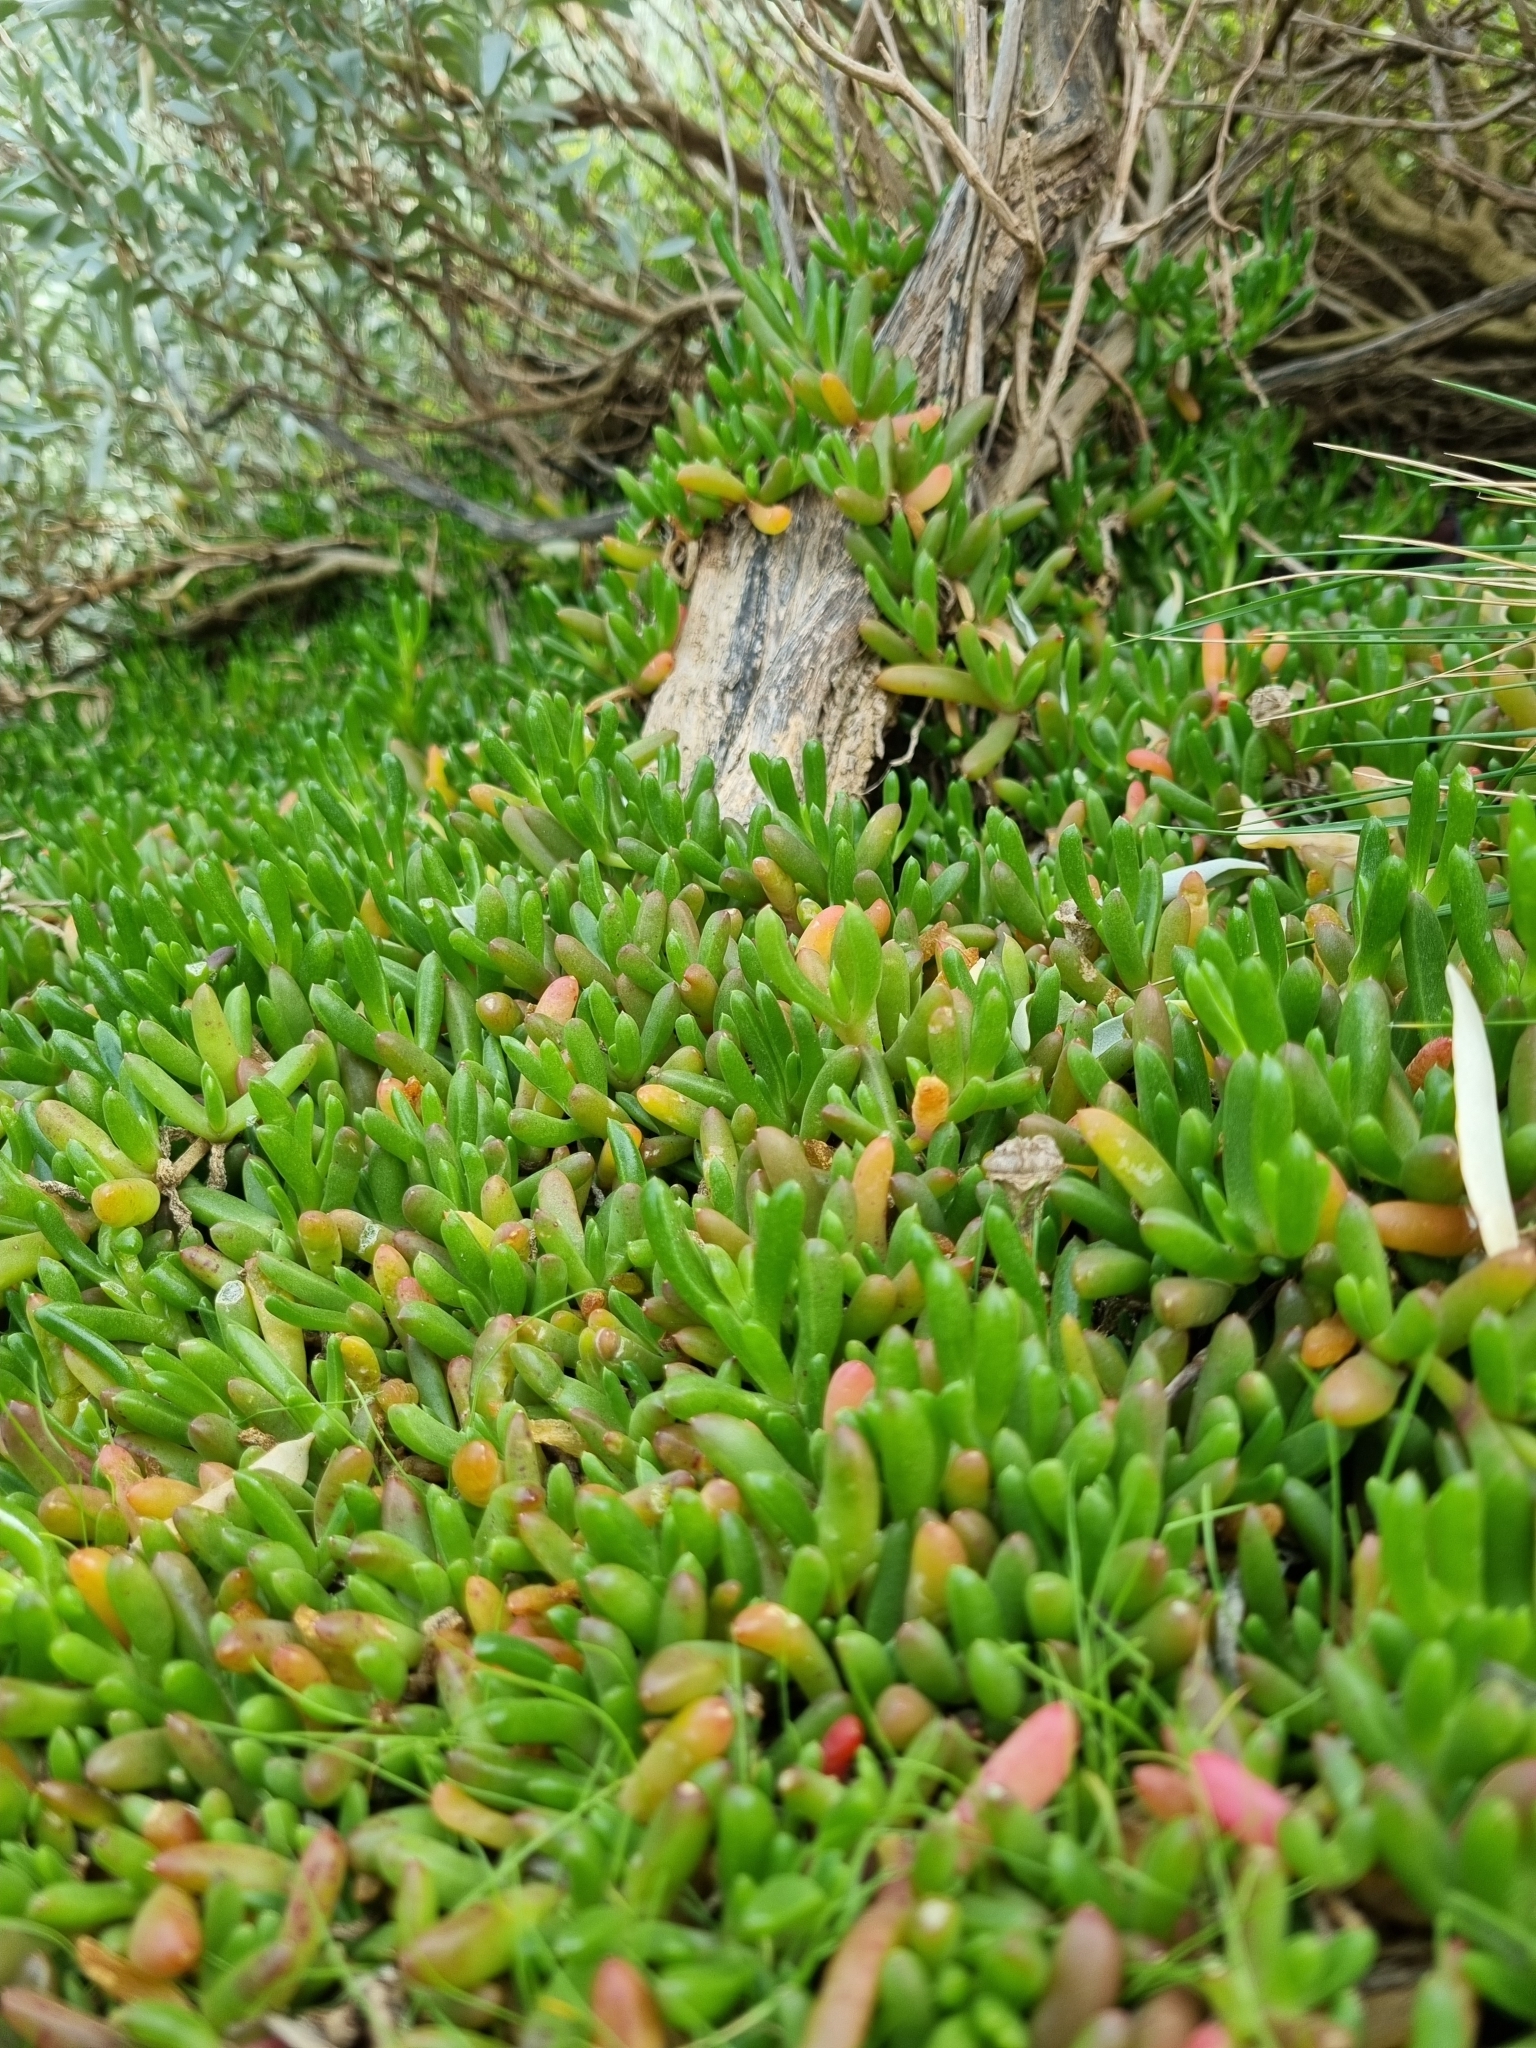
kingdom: Plantae
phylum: Tracheophyta
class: Magnoliopsida
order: Caryophyllales
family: Aizoaceae
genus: Disphyma
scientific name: Disphyma crassifolium
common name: Purple dewplant
